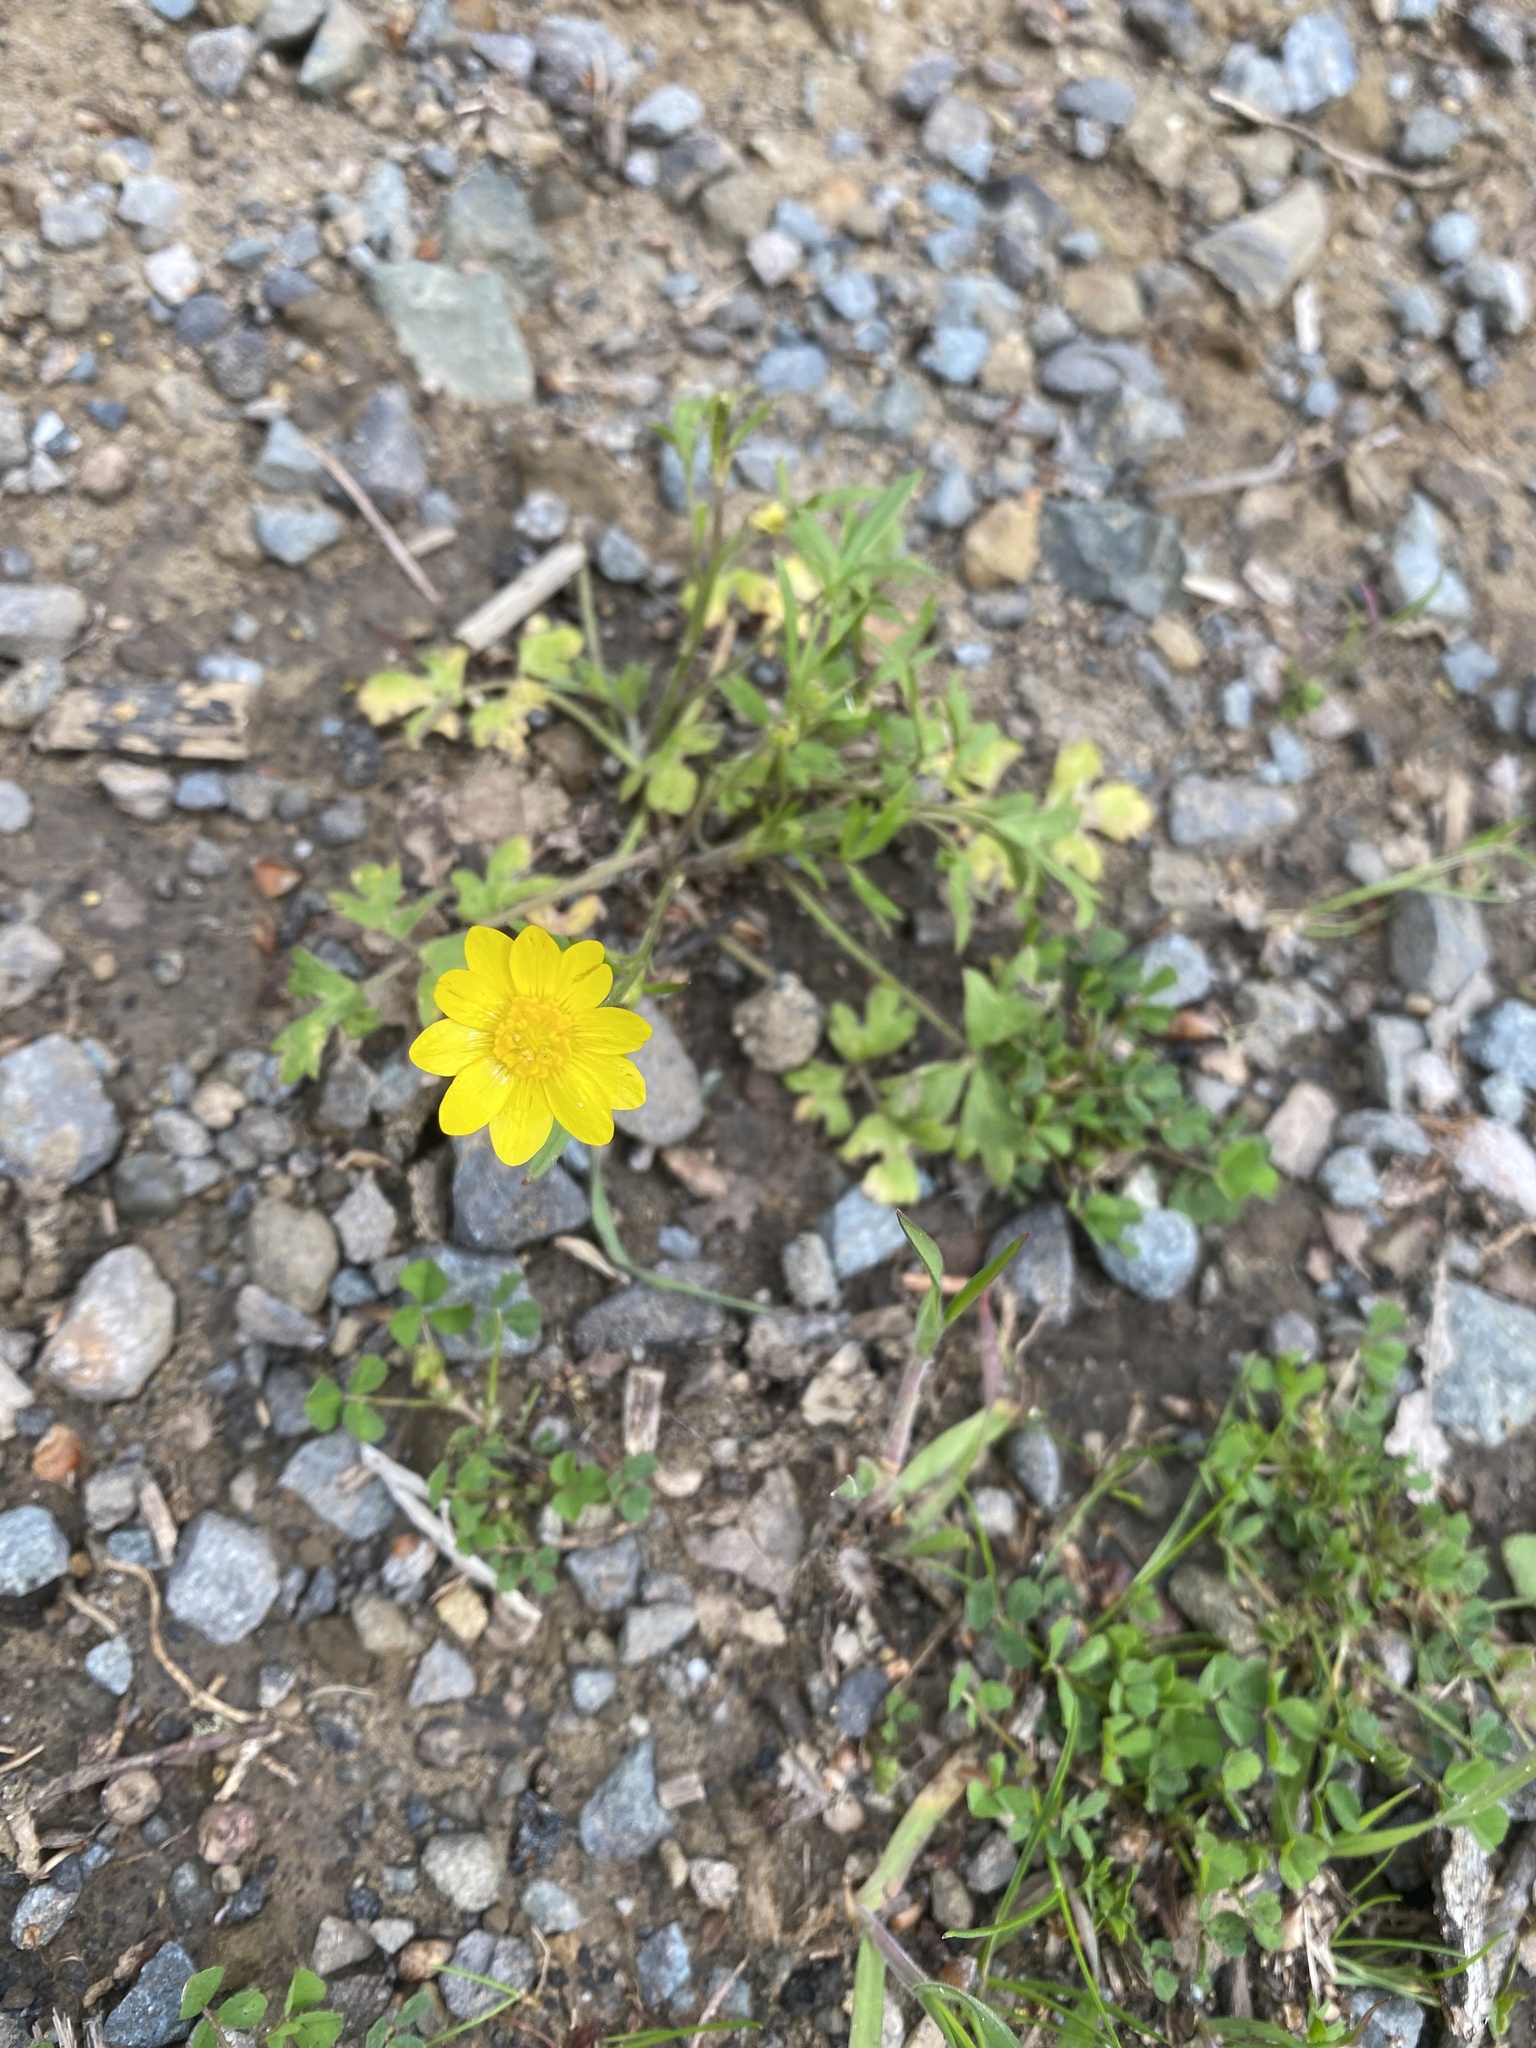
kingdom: Plantae
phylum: Tracheophyta
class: Magnoliopsida
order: Ranunculales
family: Ranunculaceae
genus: Ranunculus
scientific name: Ranunculus californicus
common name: California buttercup
